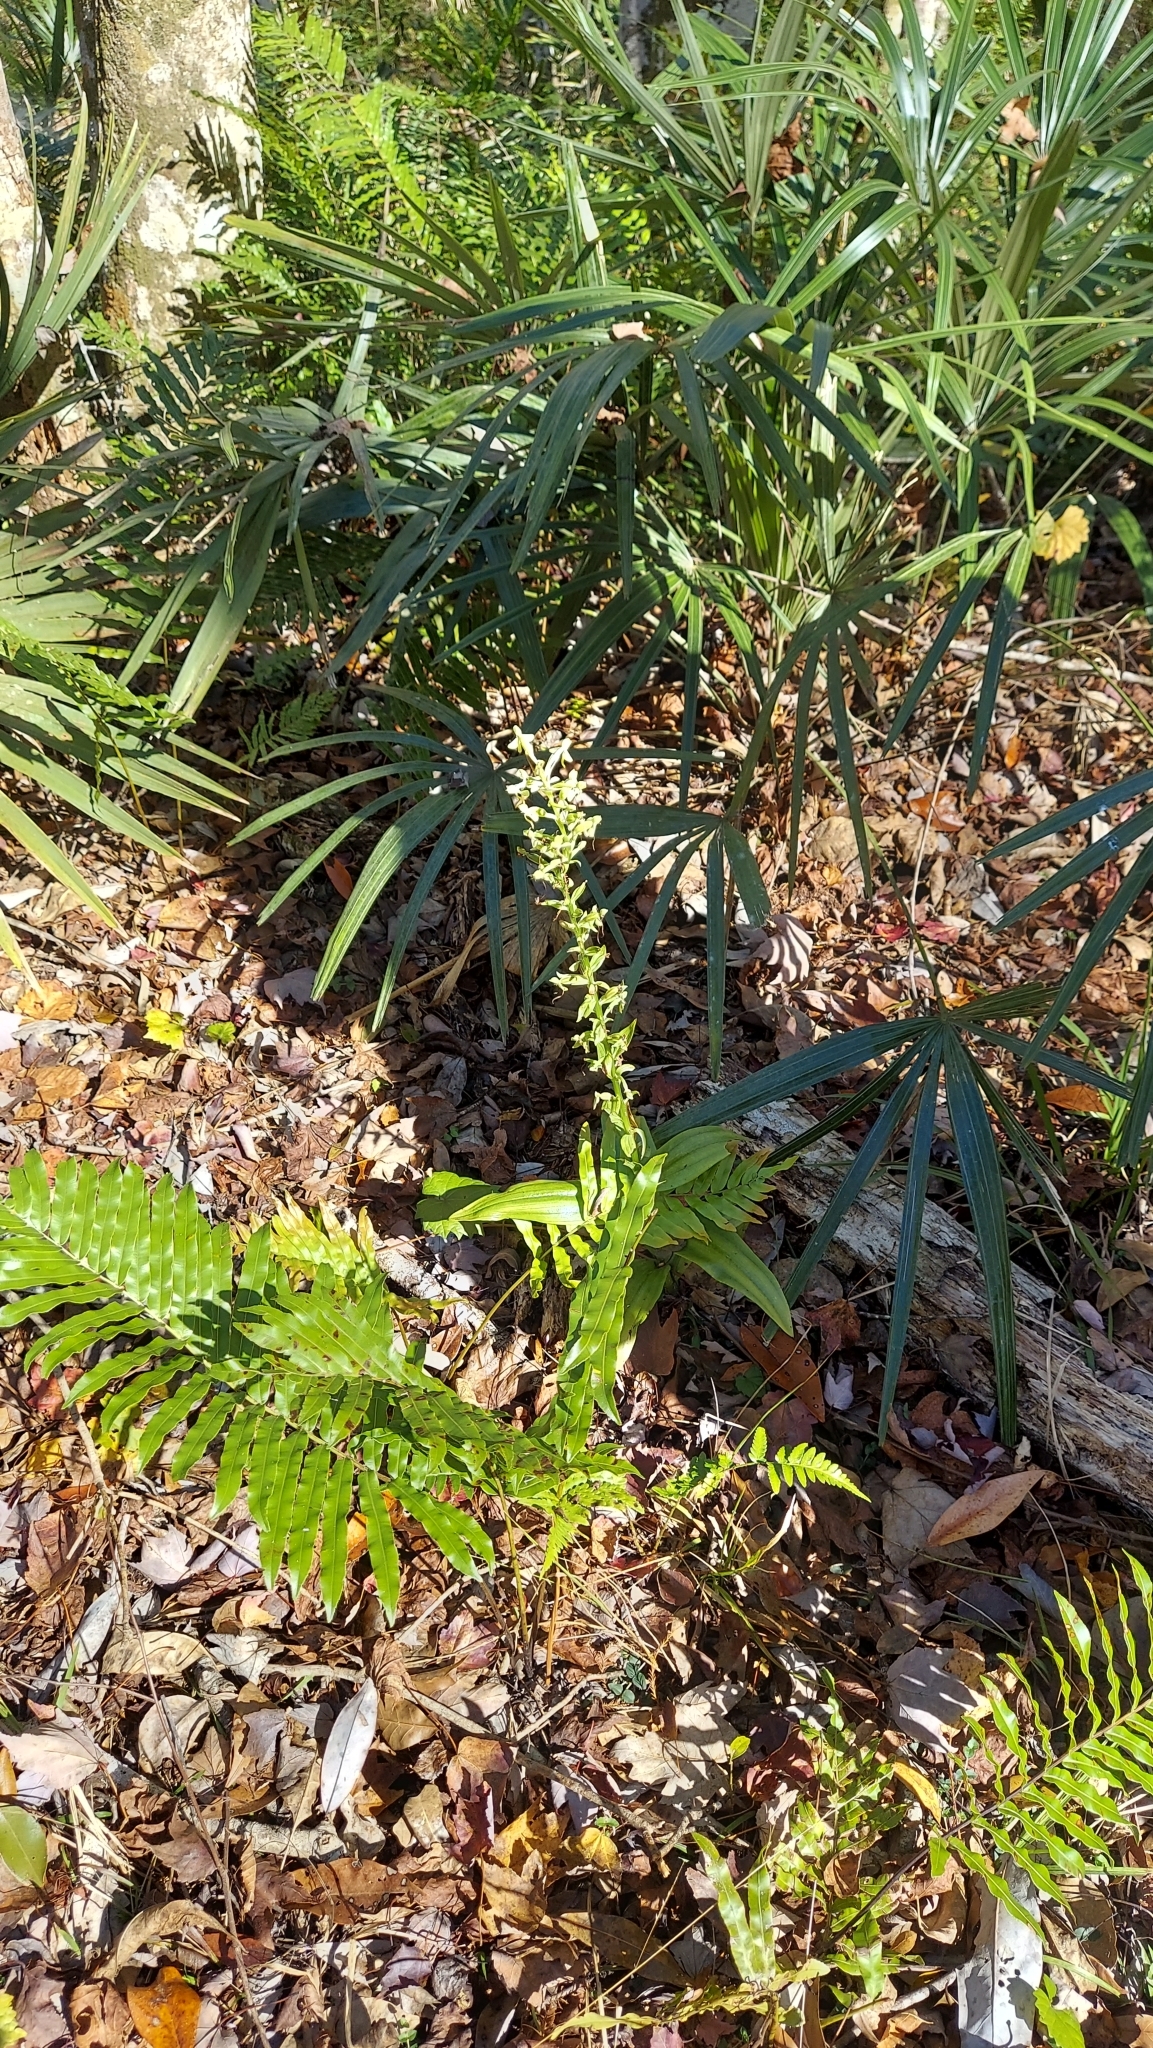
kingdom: Plantae
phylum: Tracheophyta
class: Liliopsida
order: Asparagales
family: Orchidaceae
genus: Habenaria
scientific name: Habenaria floribunda
